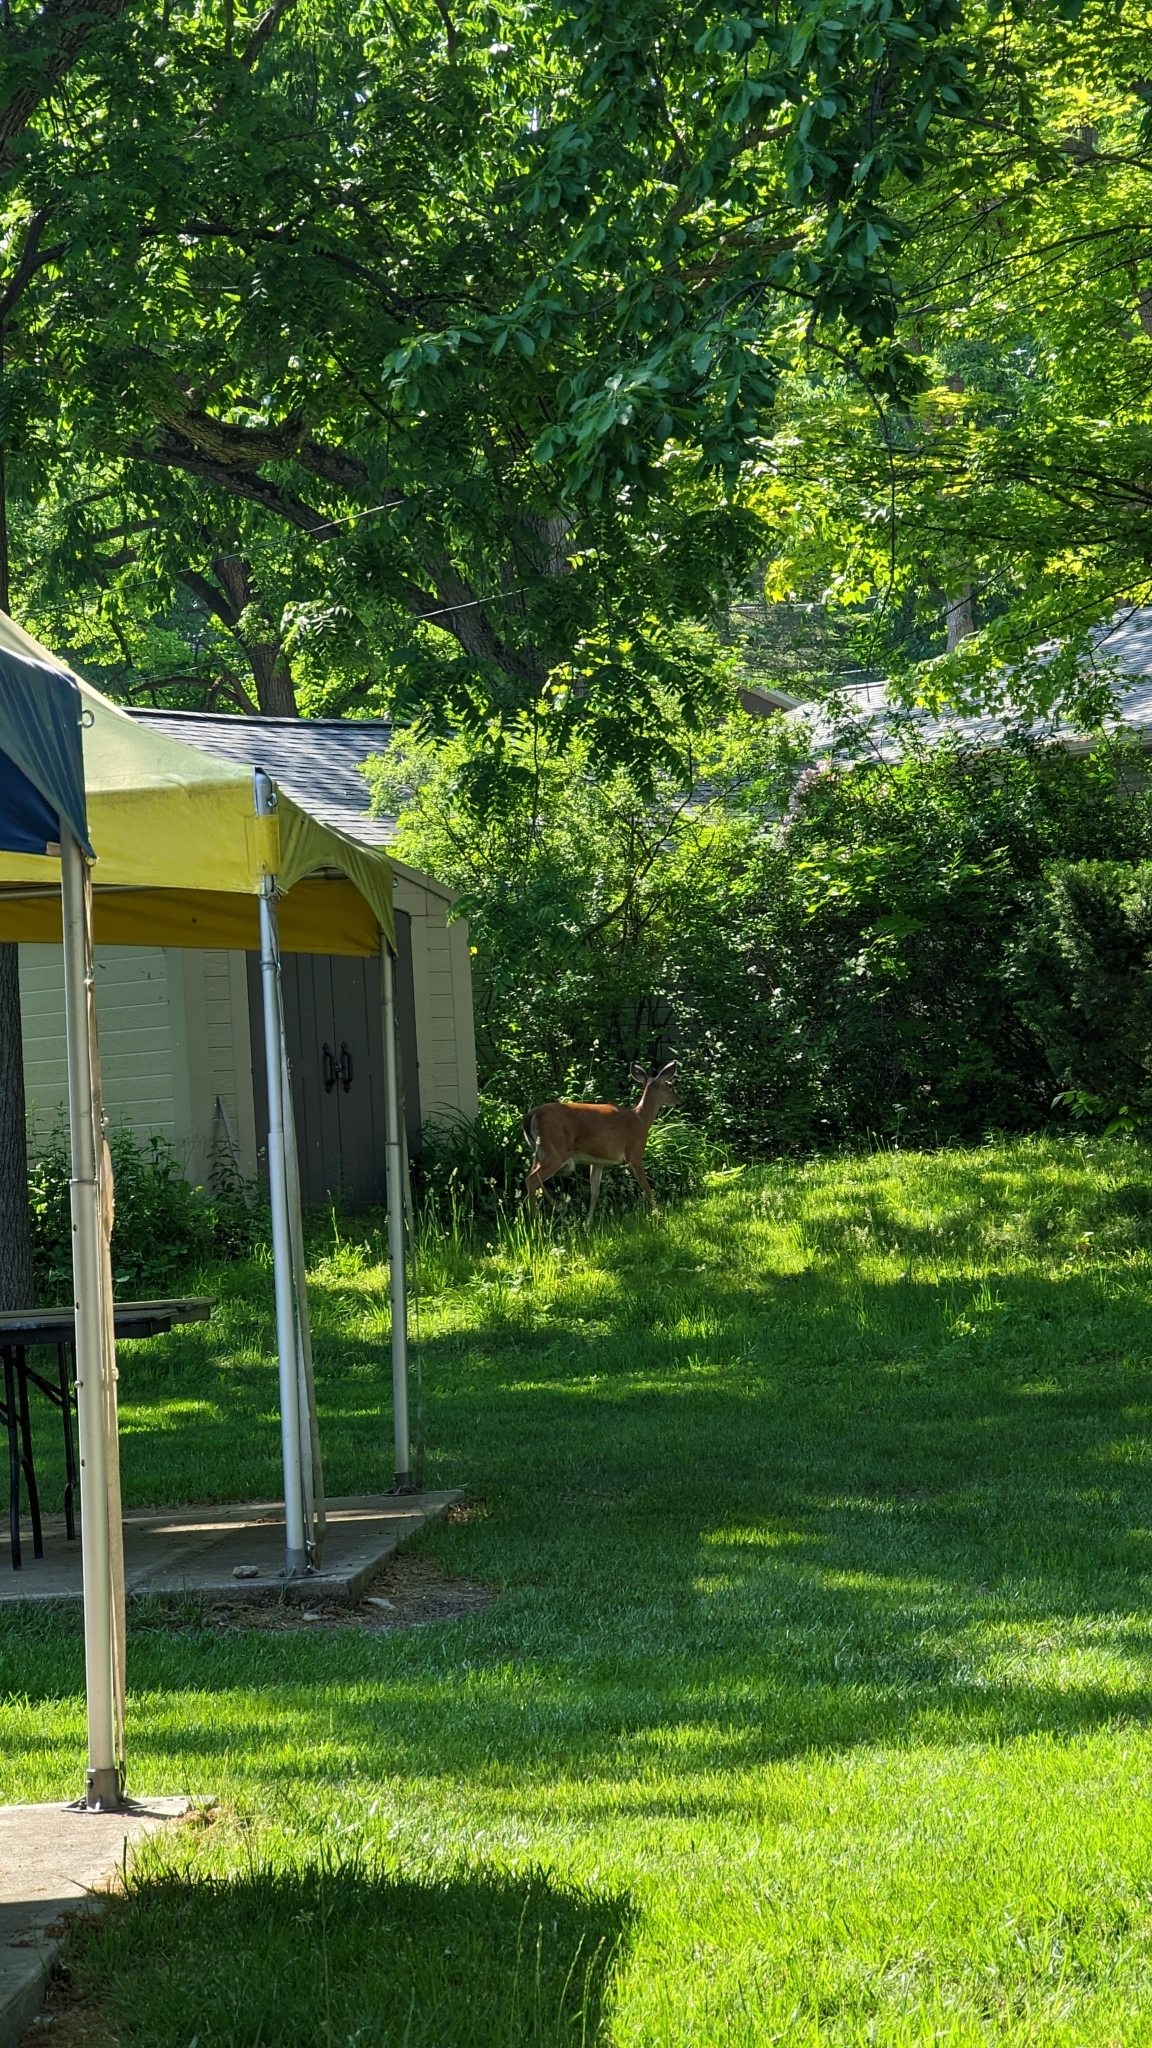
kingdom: Animalia
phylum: Chordata
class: Mammalia
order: Artiodactyla
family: Cervidae
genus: Odocoileus
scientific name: Odocoileus virginianus
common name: White-tailed deer
